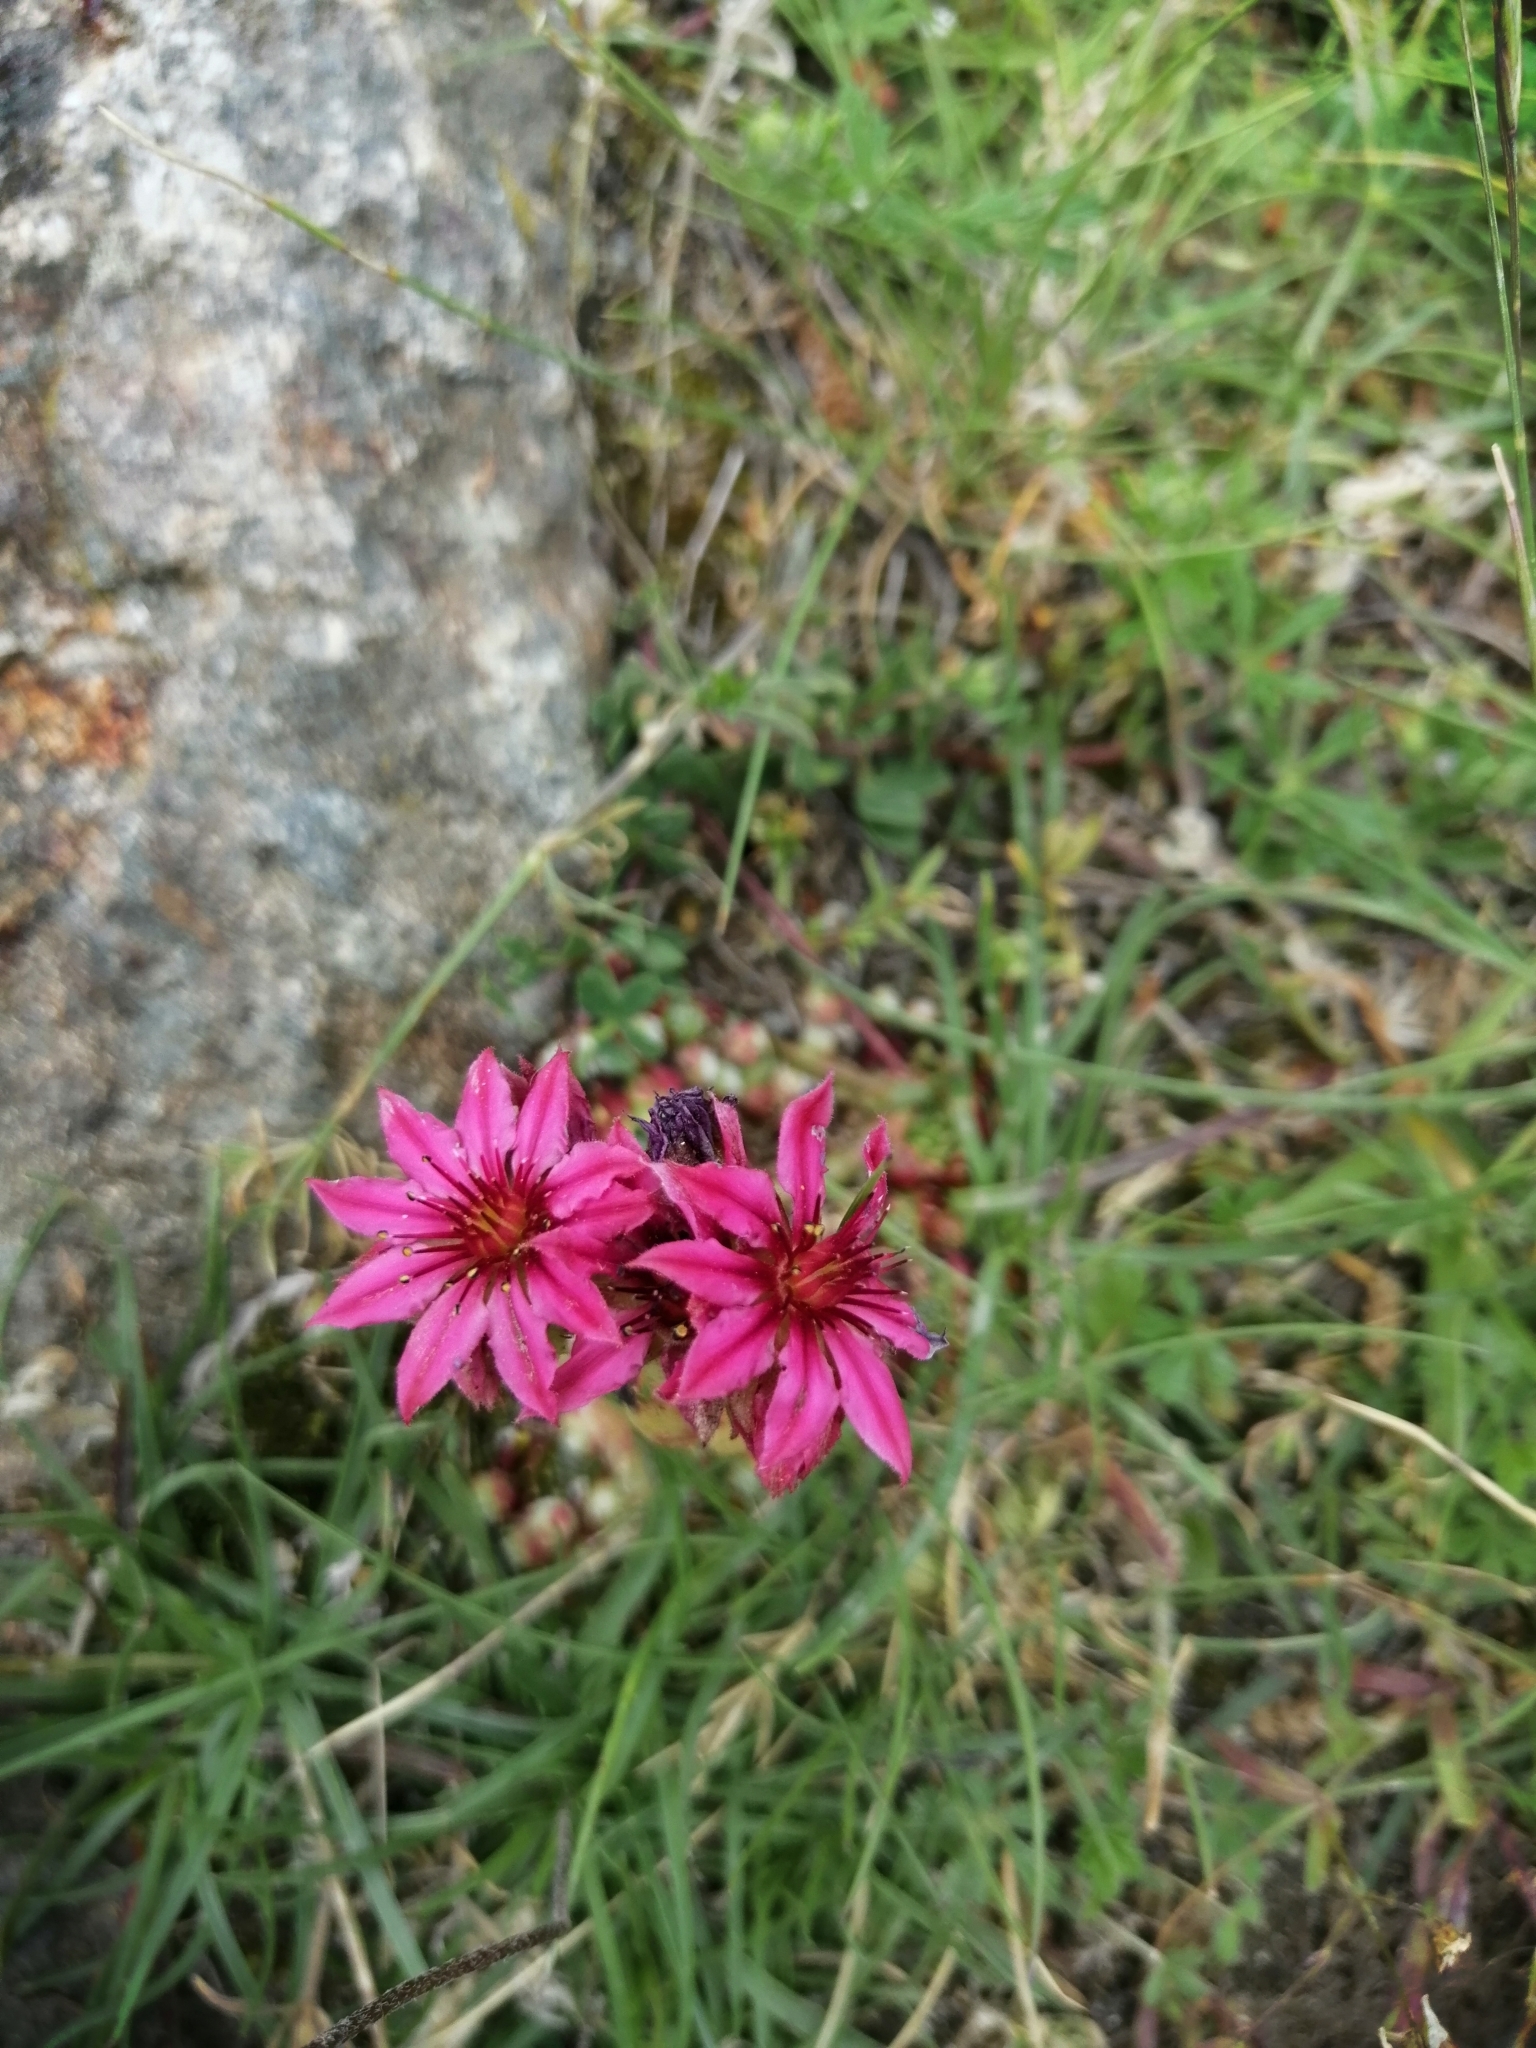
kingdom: Plantae
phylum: Tracheophyta
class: Magnoliopsida
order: Saxifragales
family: Crassulaceae
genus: Sempervivum
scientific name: Sempervivum arachnoideum
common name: Cobweb house-leek
